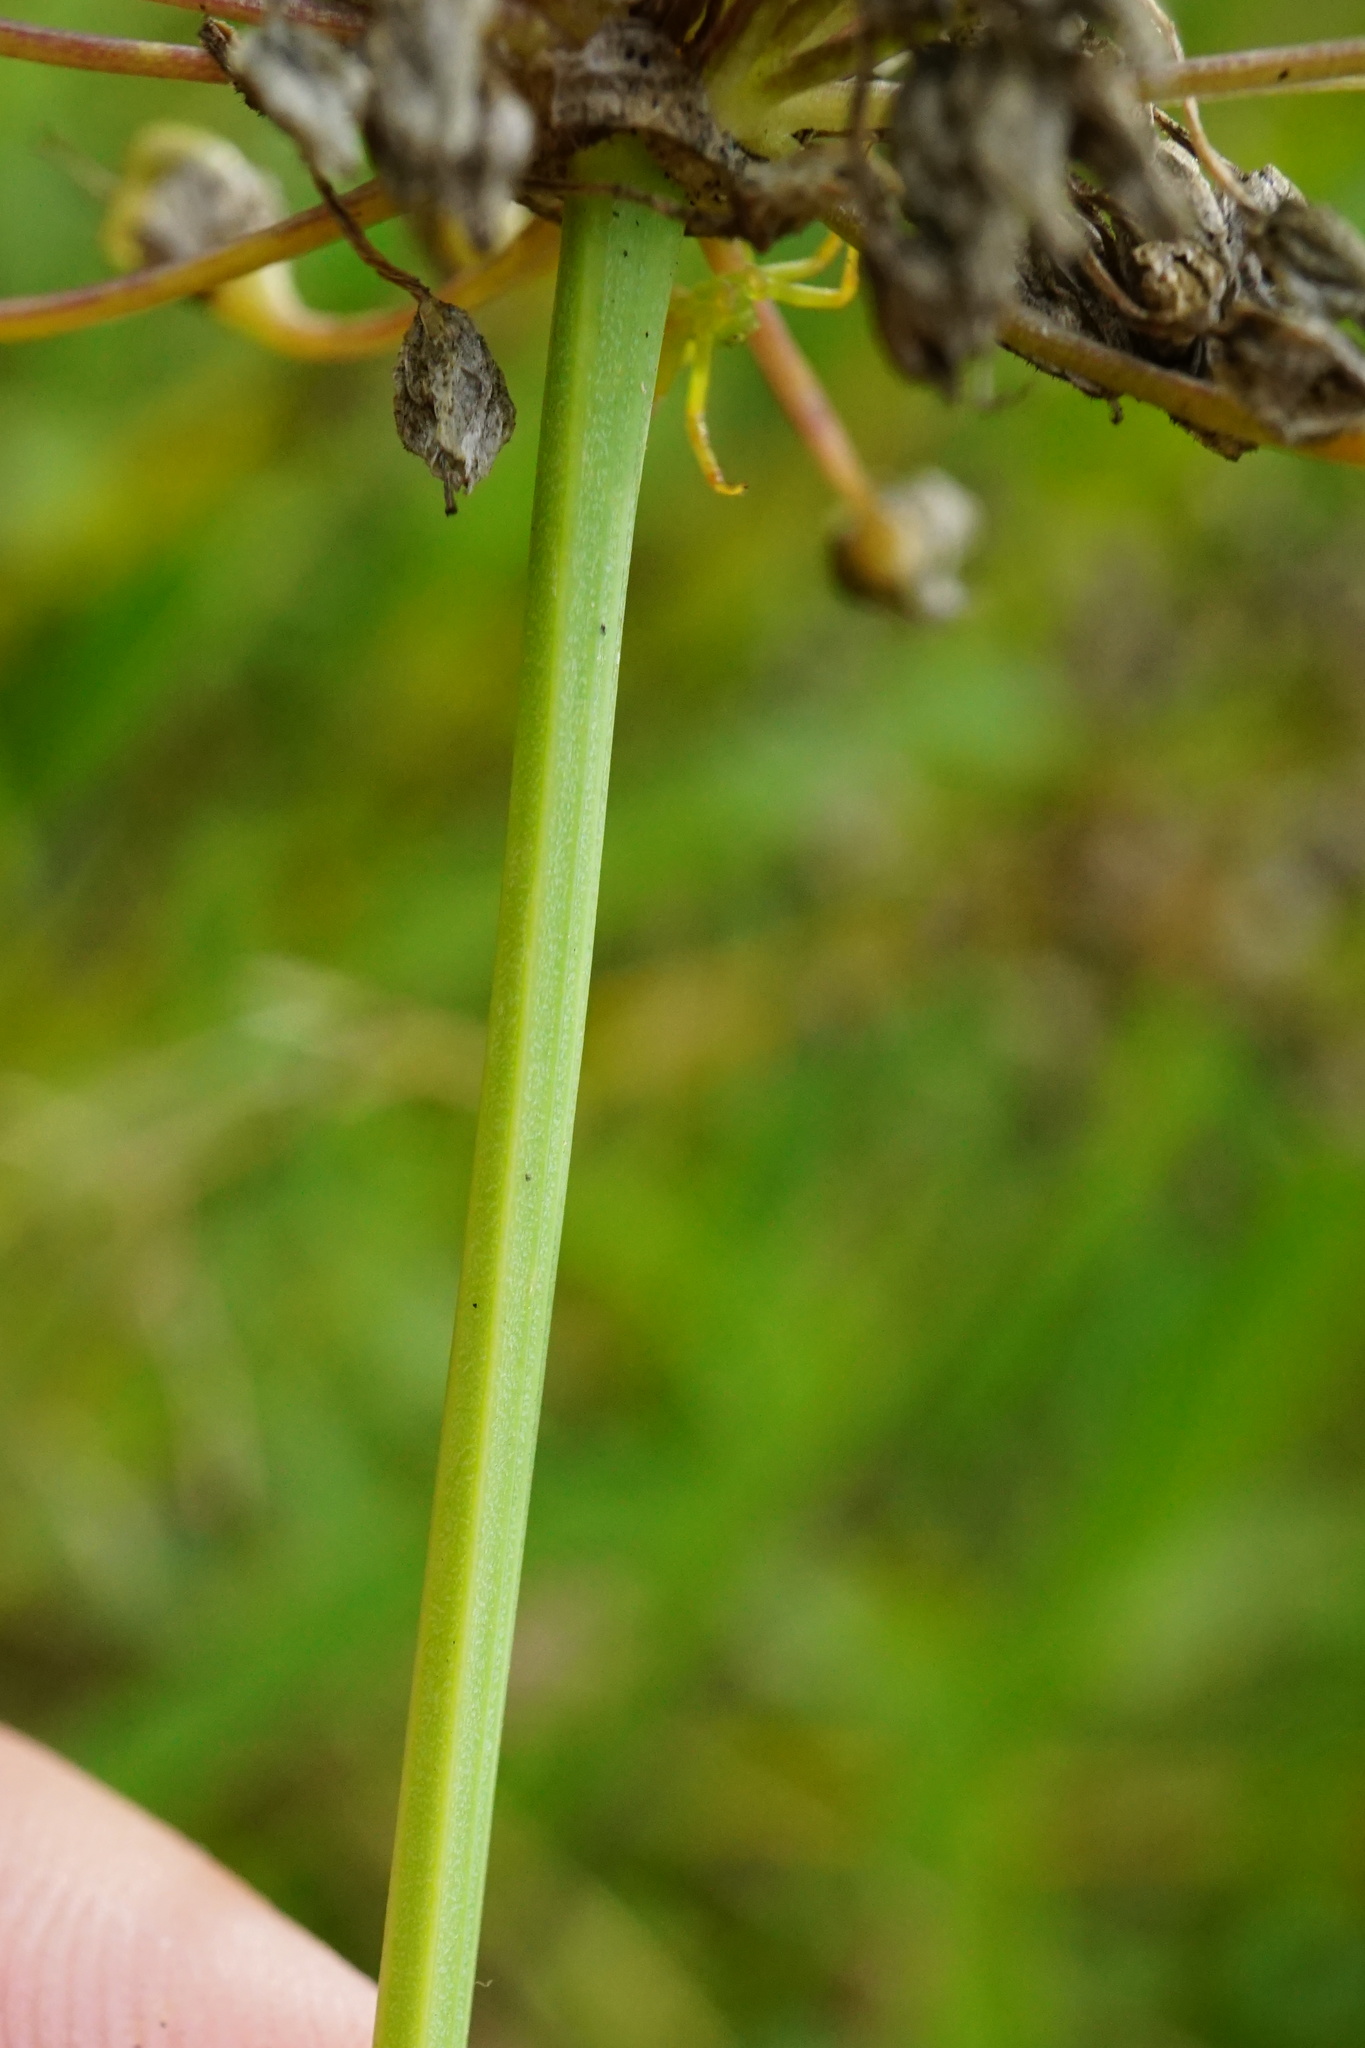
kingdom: Plantae
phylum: Tracheophyta
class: Liliopsida
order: Asparagales
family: Amaryllidaceae
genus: Allium
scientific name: Allium angulosum
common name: Mouse garlic
